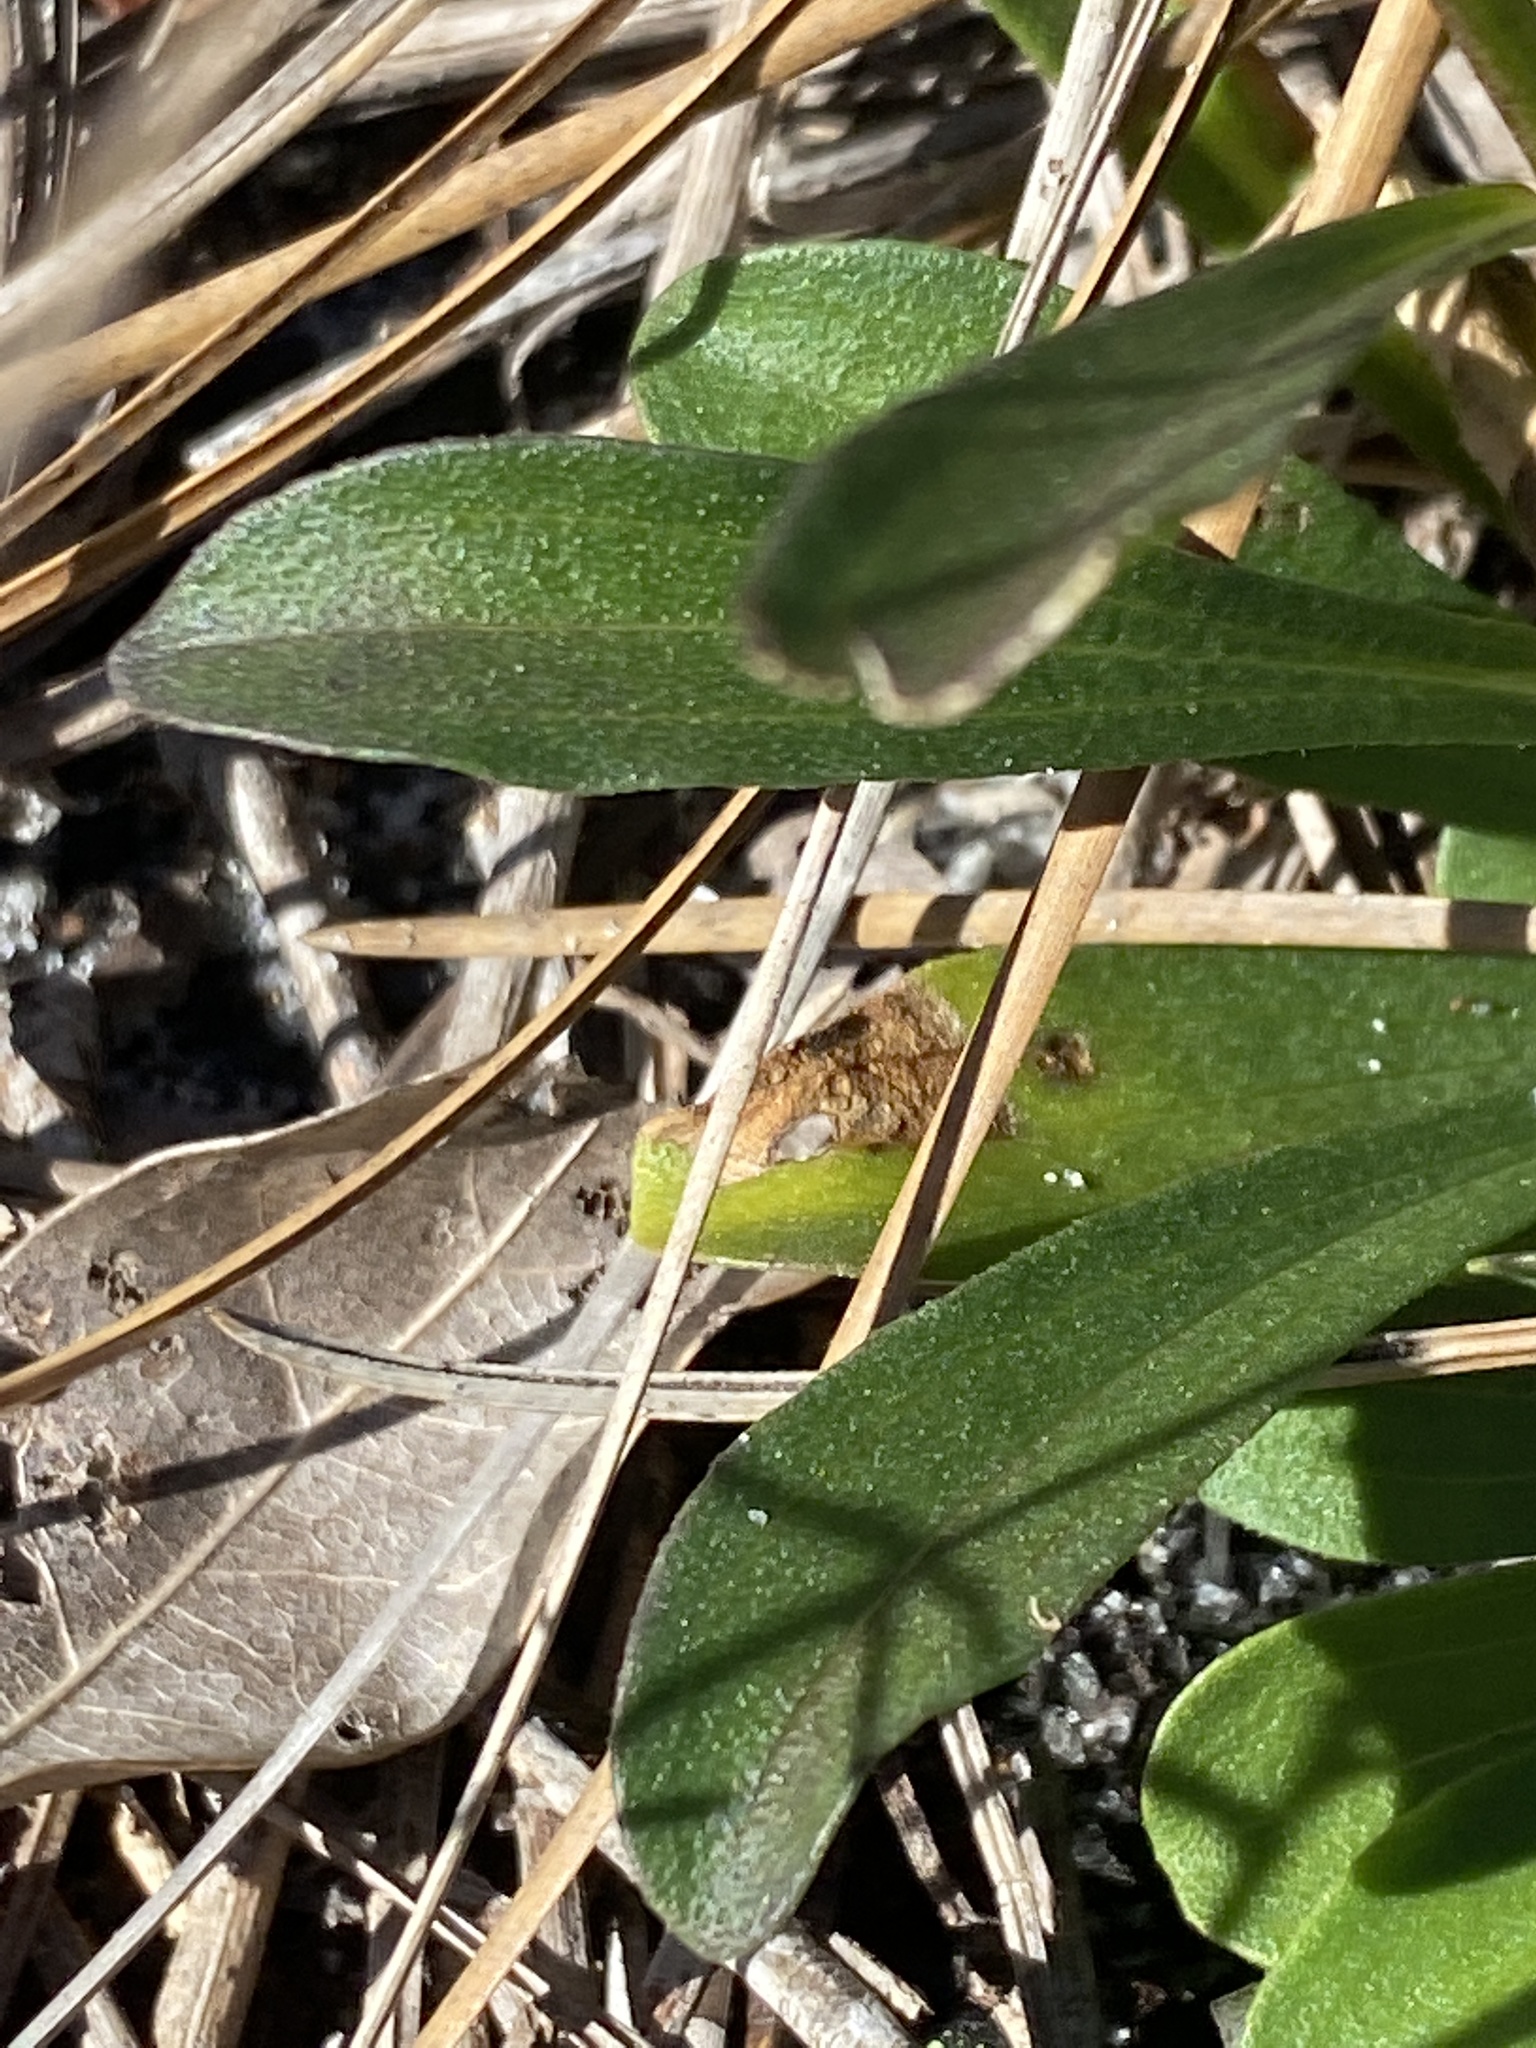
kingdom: Plantae
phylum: Tracheophyta
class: Magnoliopsida
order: Asterales
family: Asteraceae
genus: Carphephorus
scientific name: Carphephorus bellidifolius
